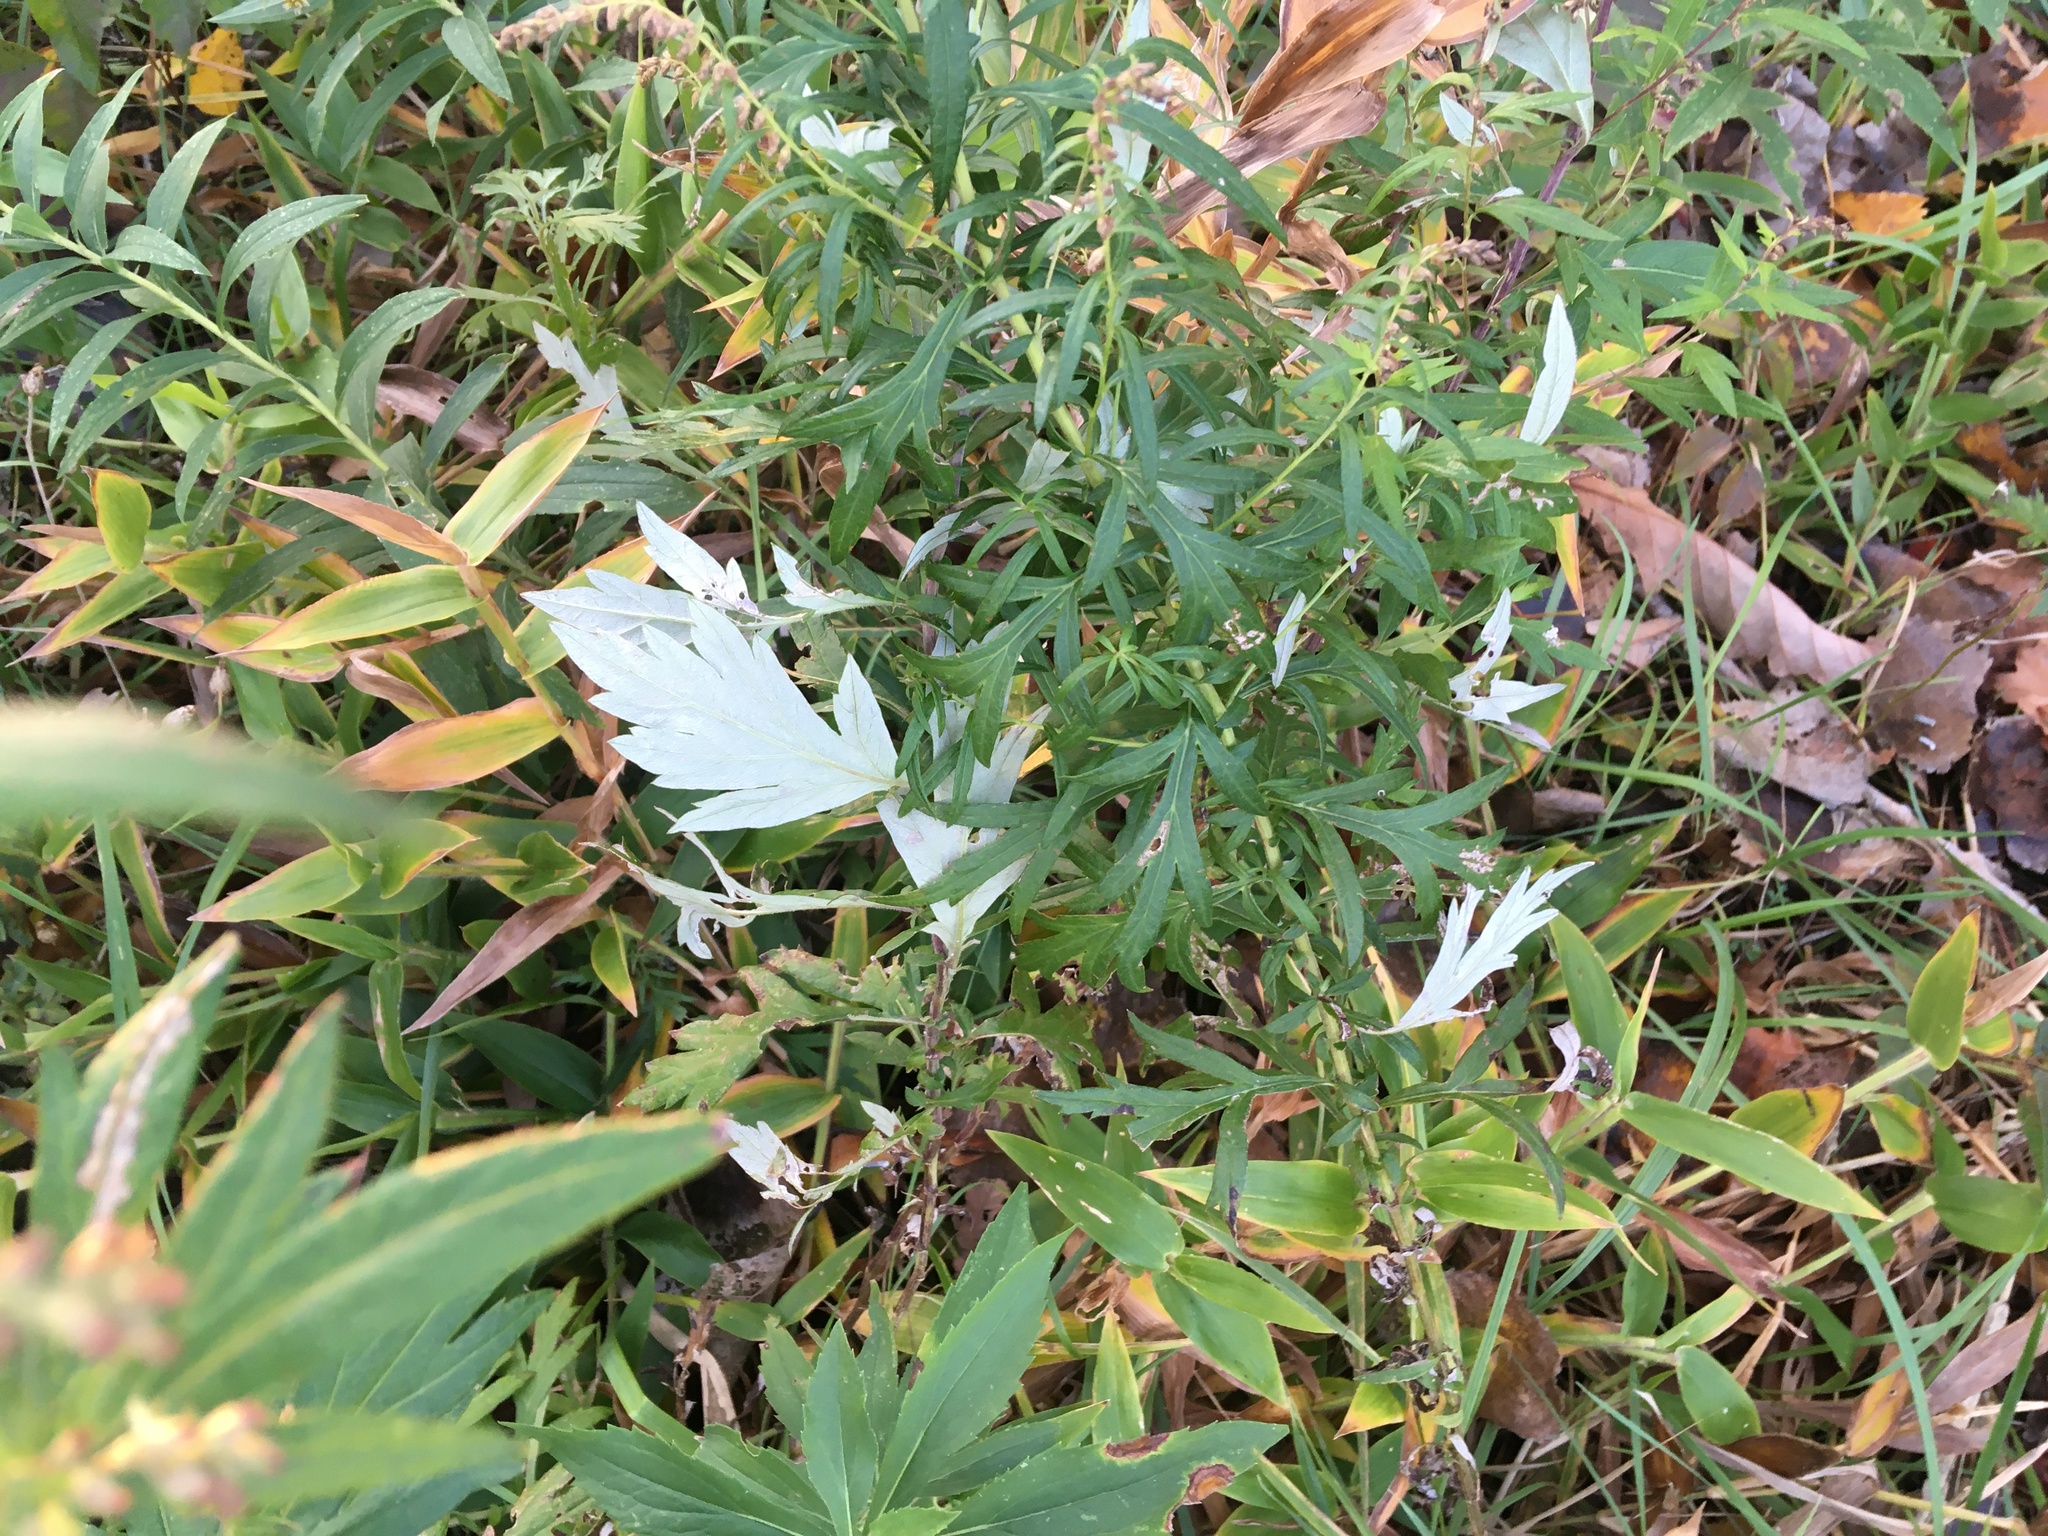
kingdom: Plantae
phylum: Tracheophyta
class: Magnoliopsida
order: Asterales
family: Asteraceae
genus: Artemisia
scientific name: Artemisia vulgaris
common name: Mugwort
